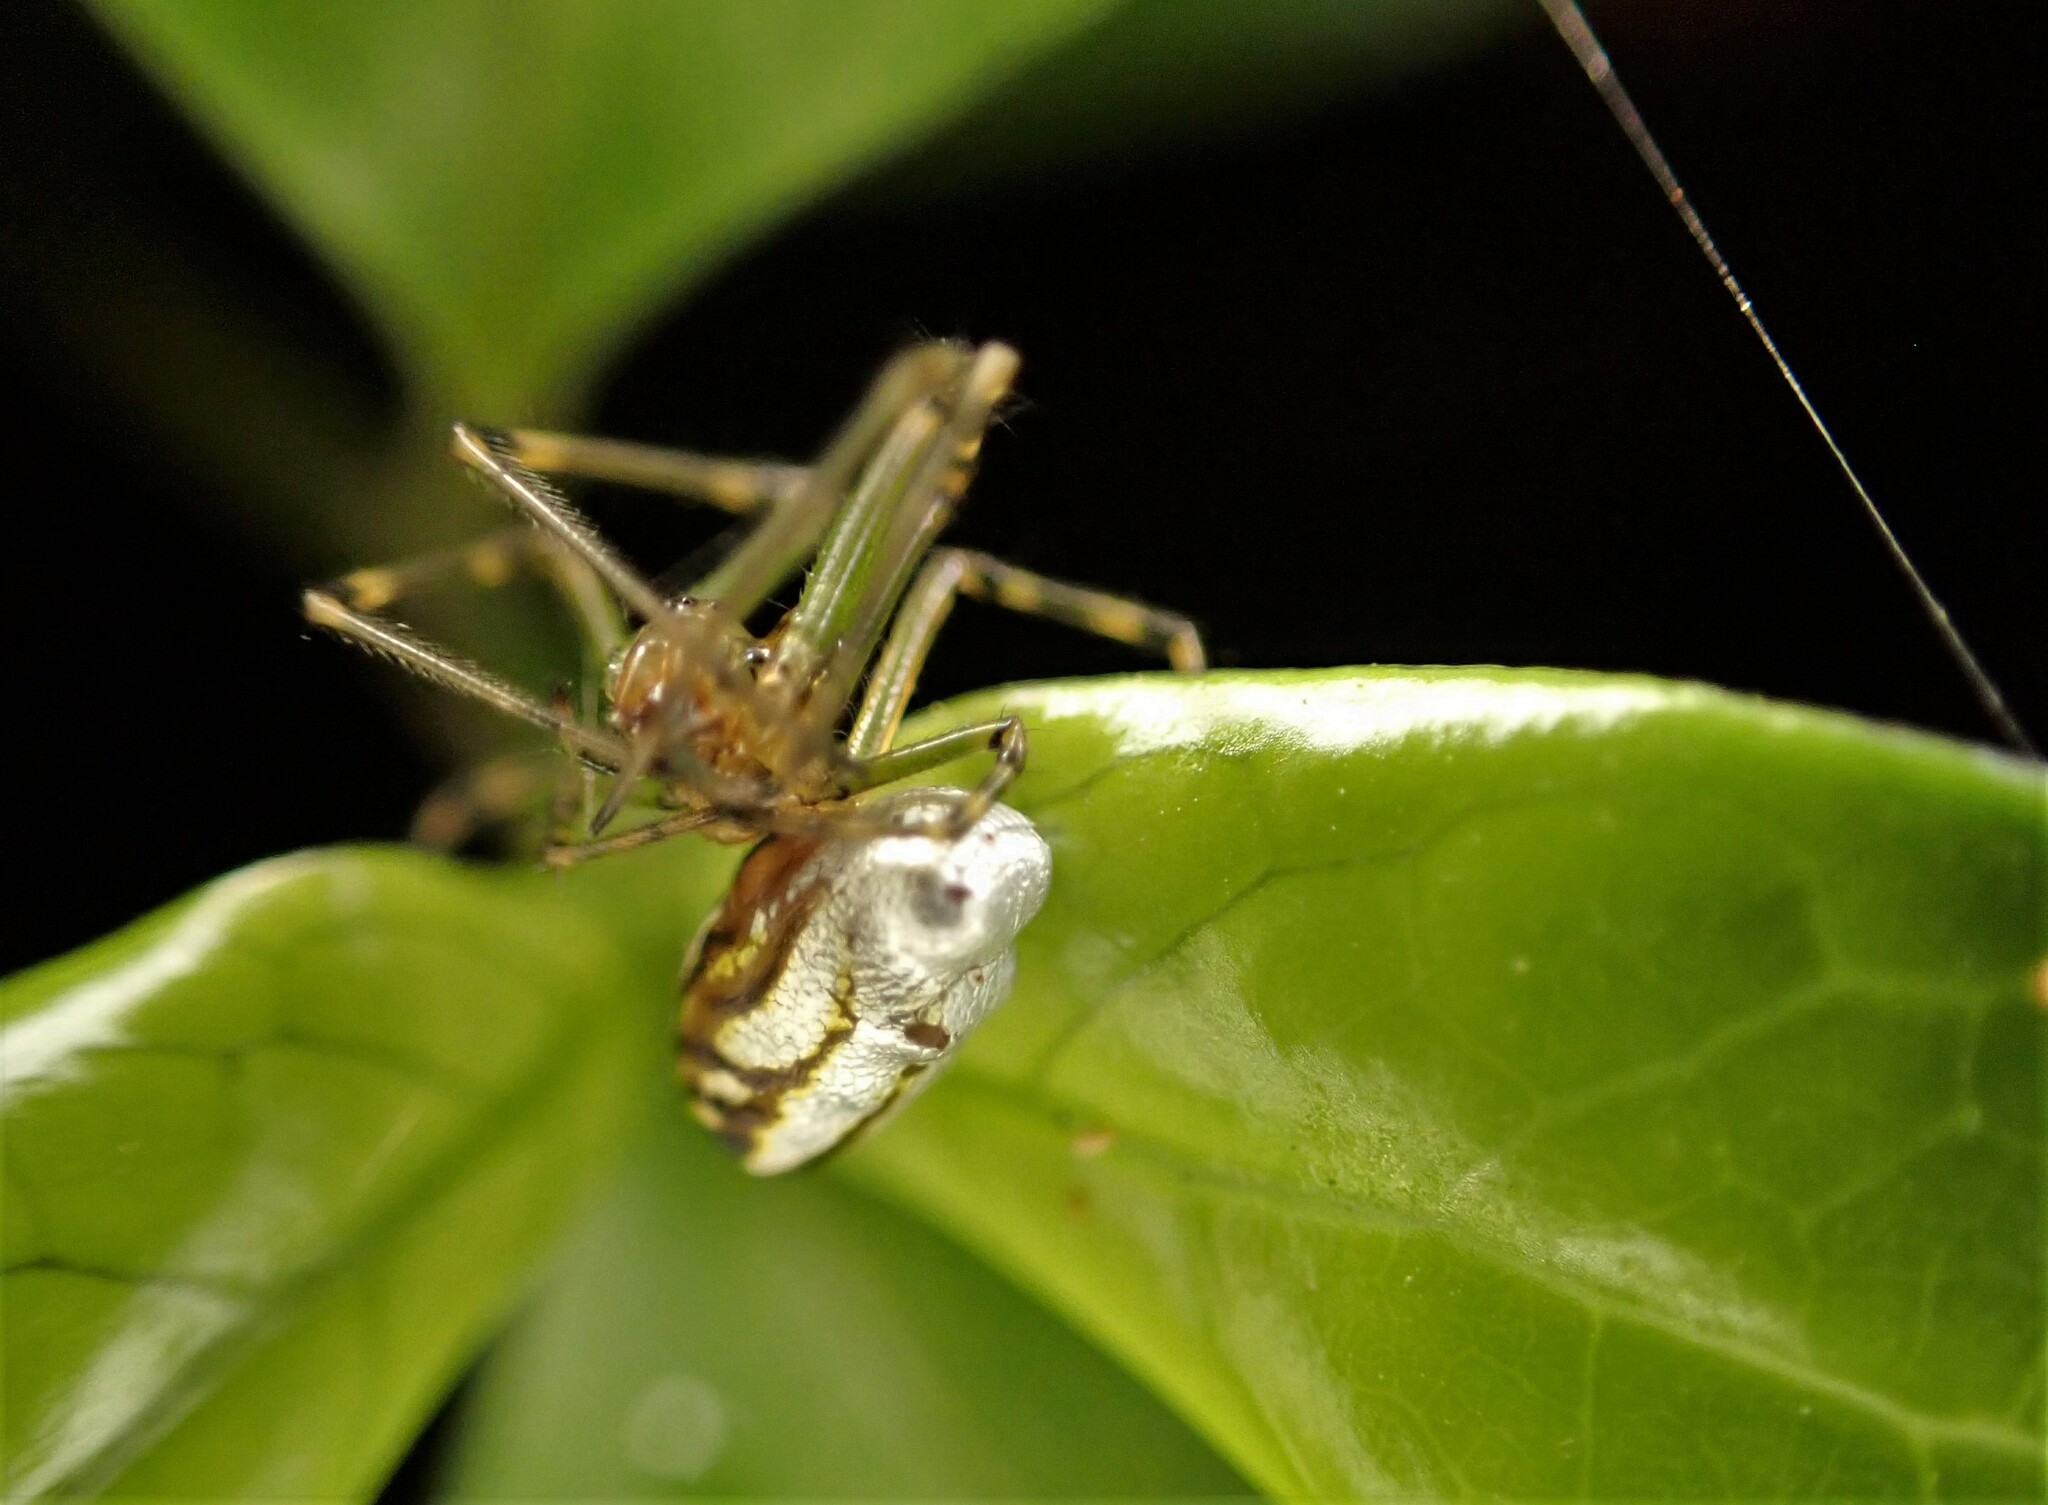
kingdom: Animalia
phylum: Arthropoda
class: Arachnida
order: Araneae
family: Tetragnathidae
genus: Leucauge
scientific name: Leucauge dromedaria
